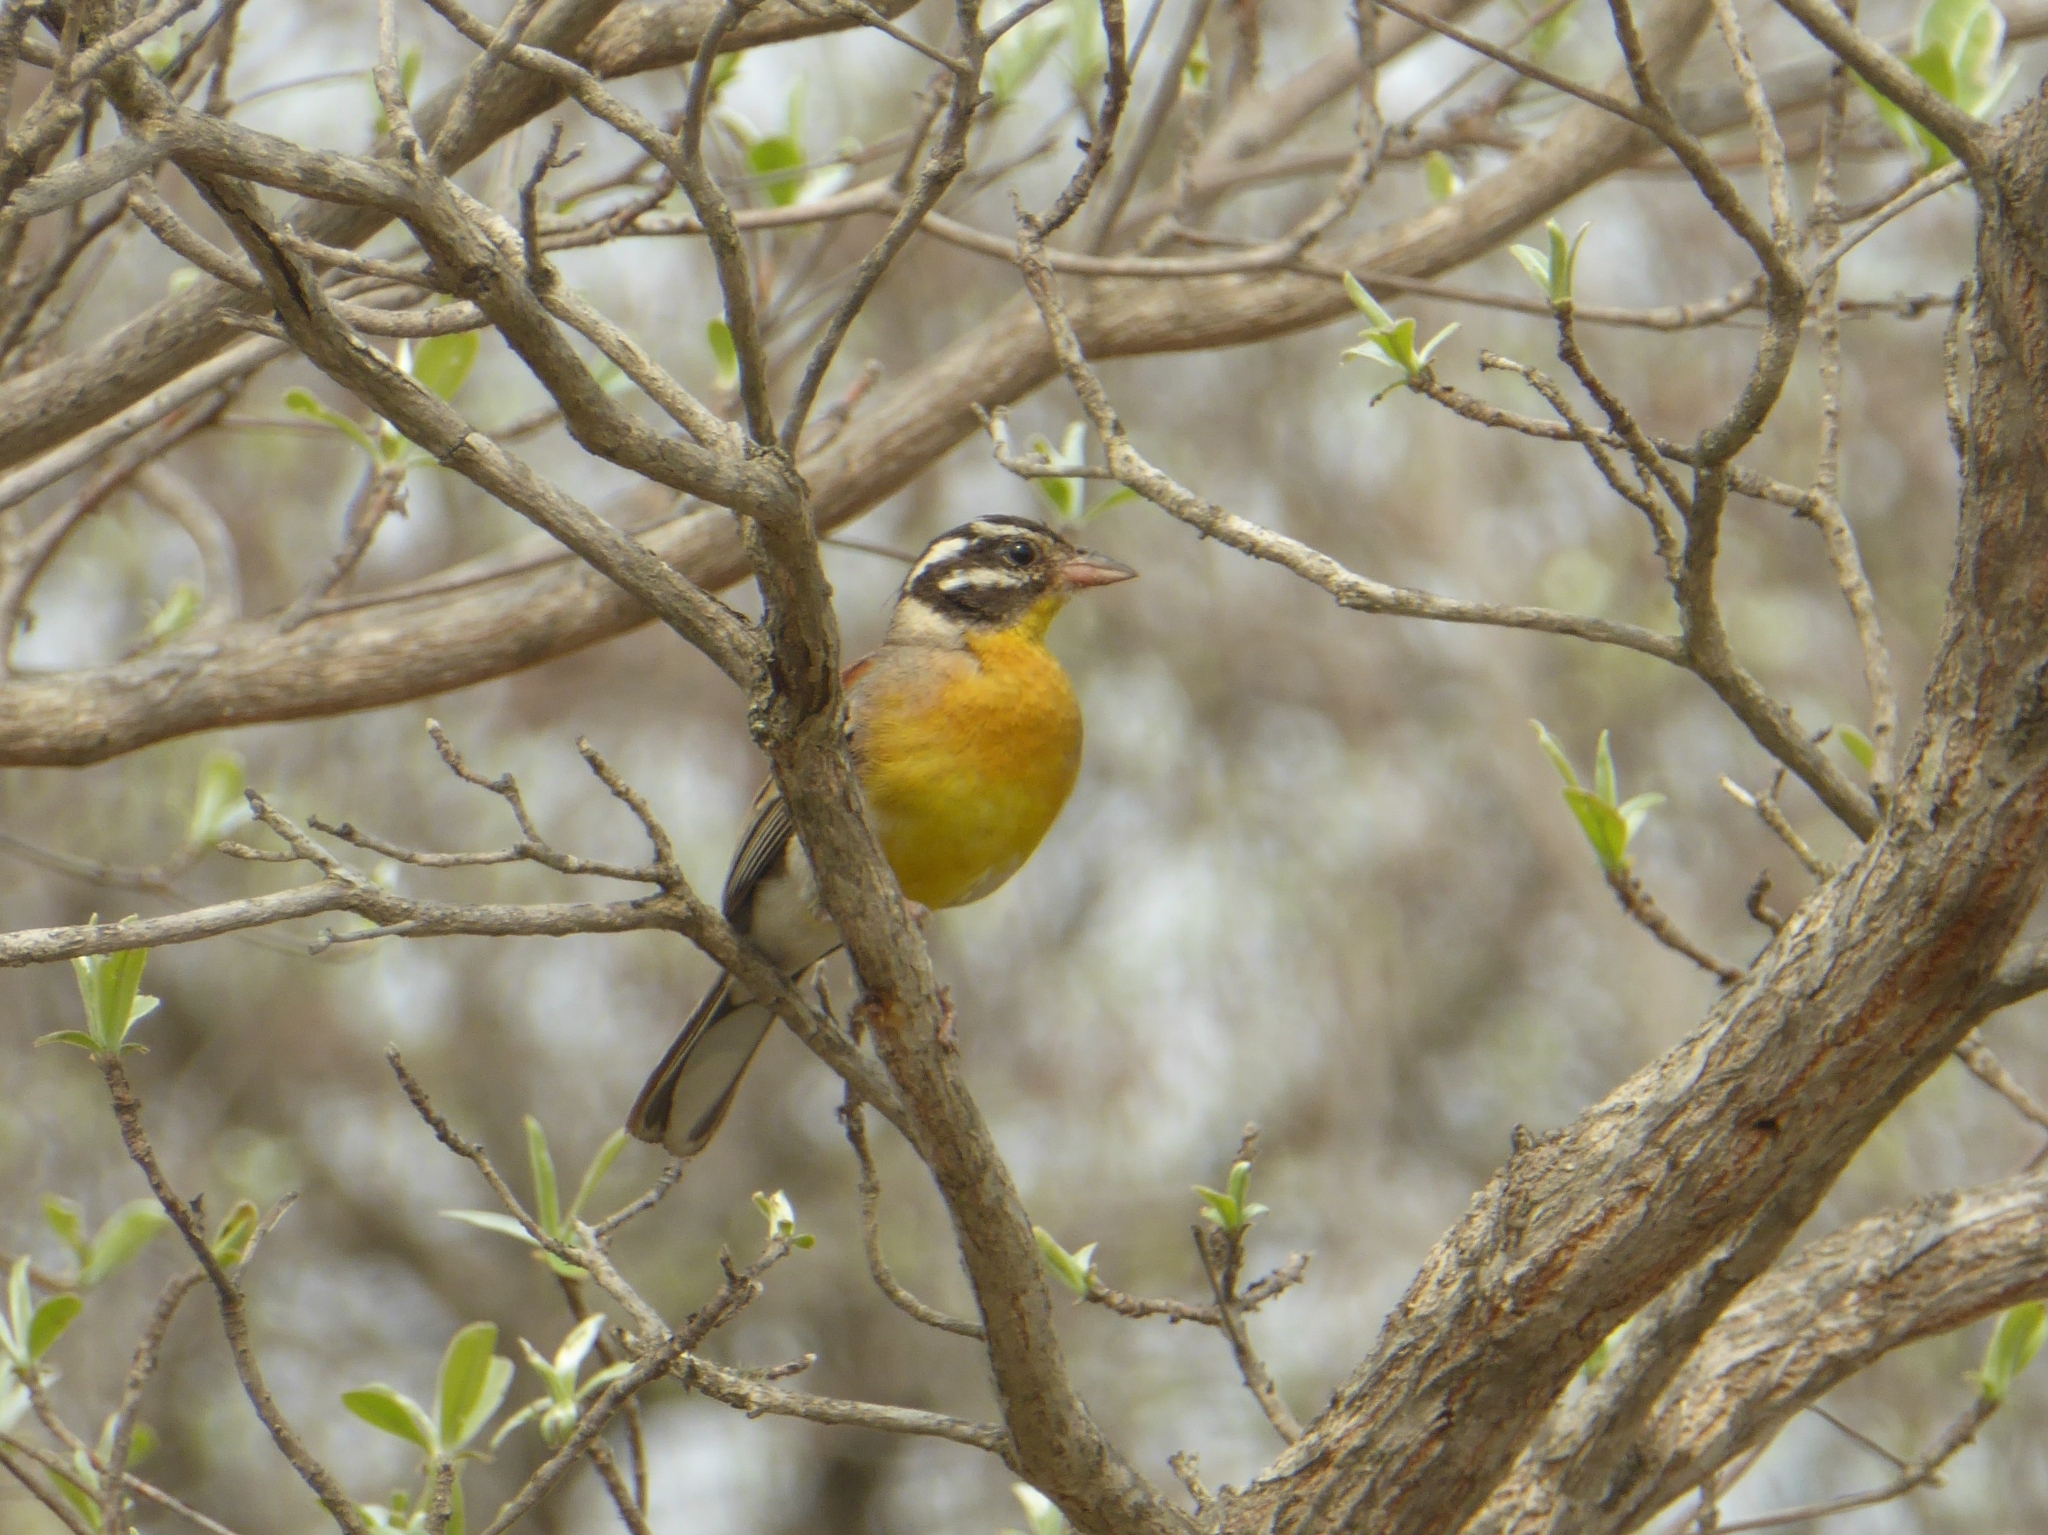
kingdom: Animalia
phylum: Chordata
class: Aves
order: Passeriformes
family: Emberizidae
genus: Emberiza
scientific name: Emberiza flaviventris
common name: Golden-breasted bunting
